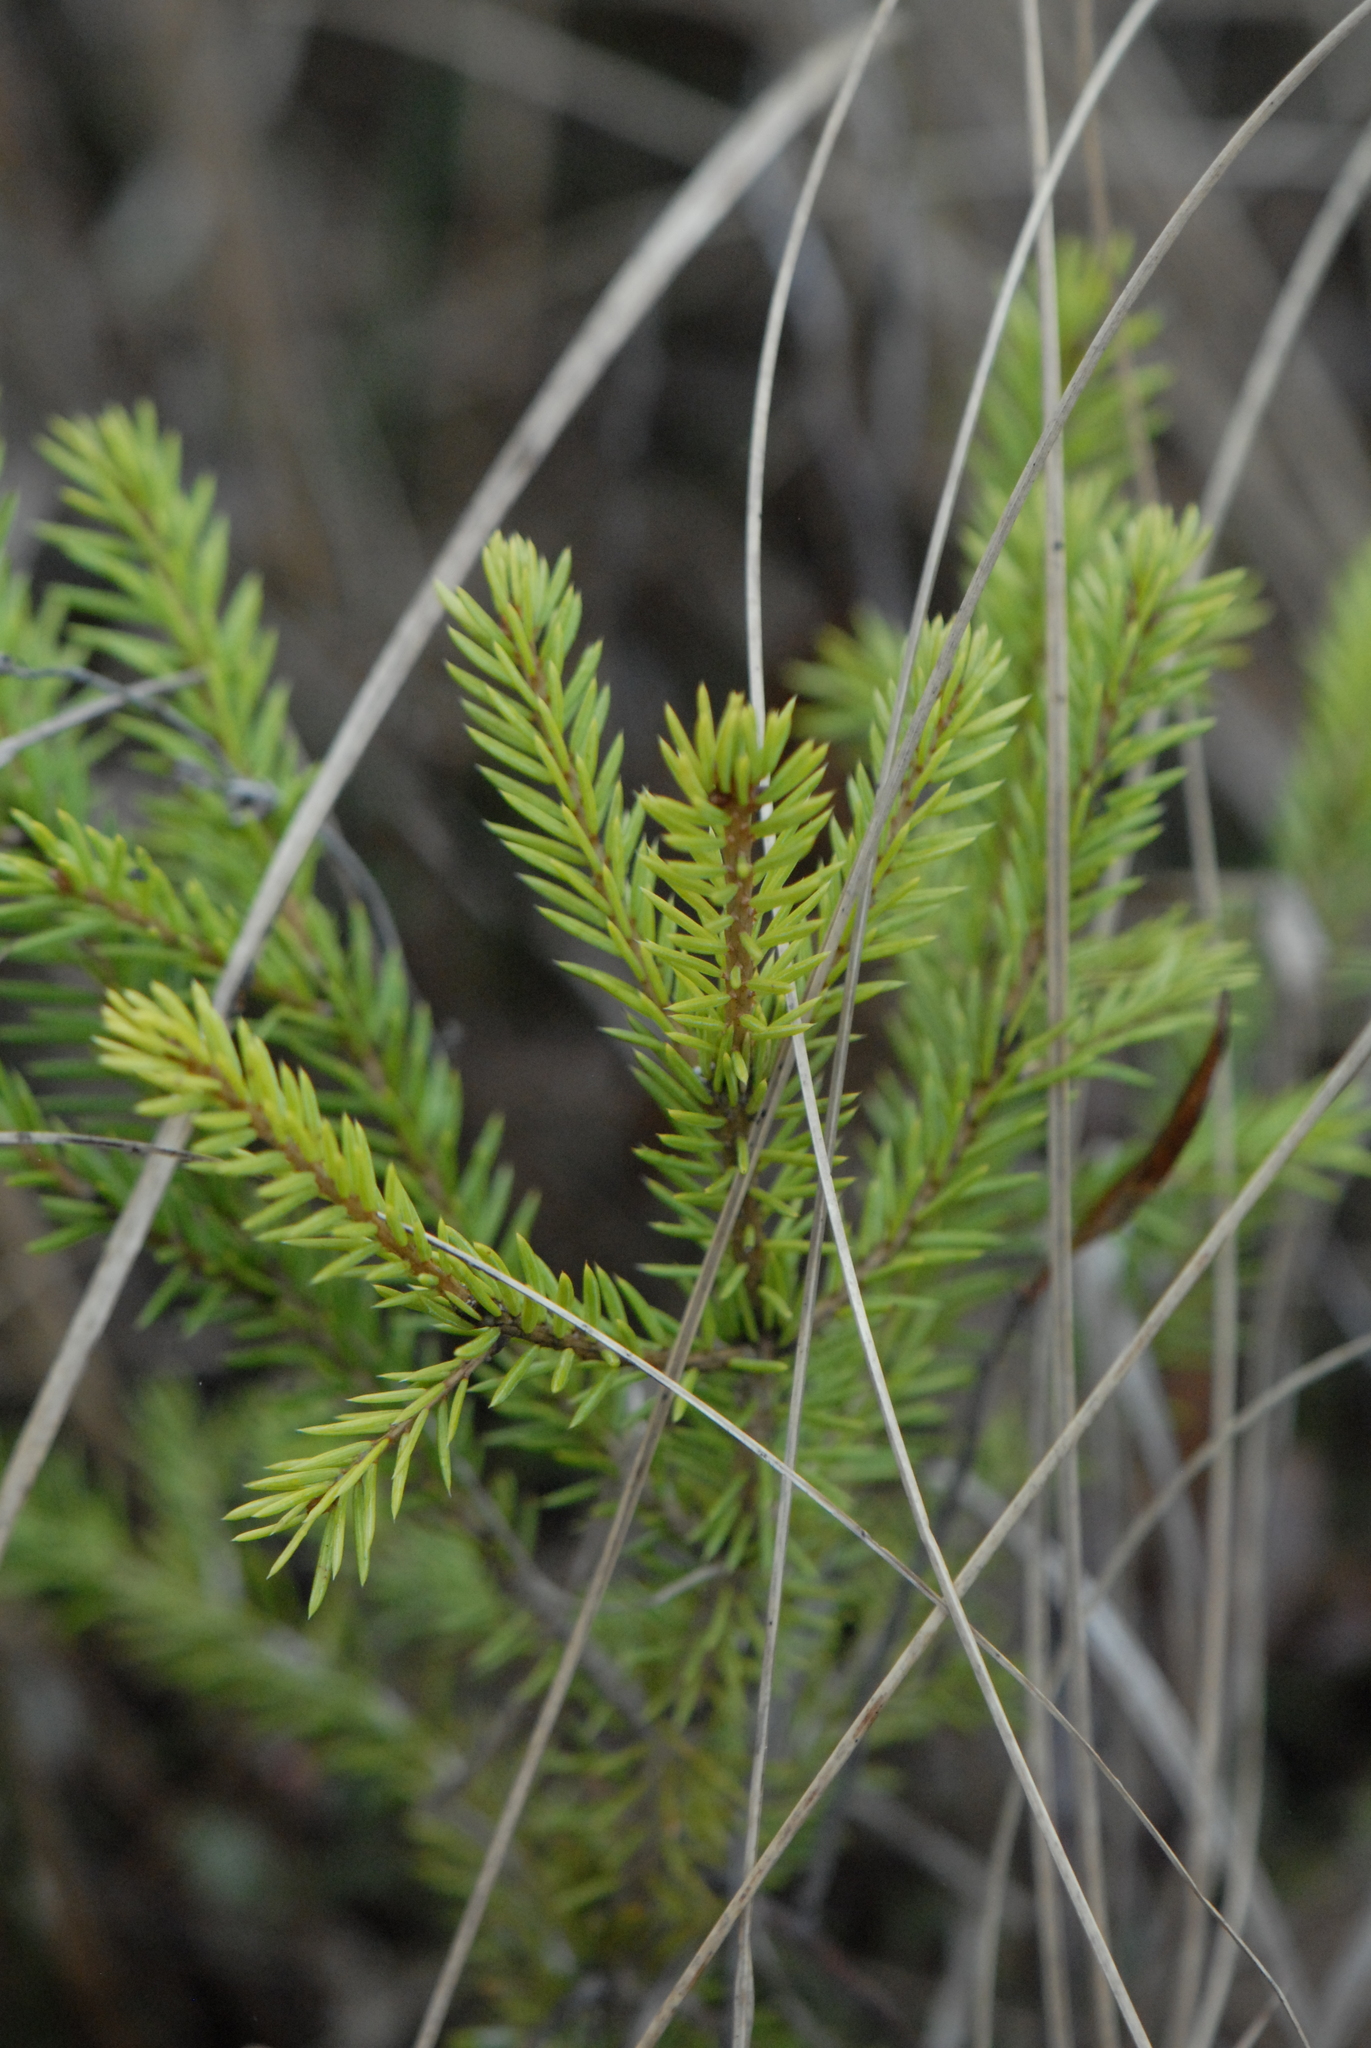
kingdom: Plantae
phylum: Tracheophyta
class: Pinopsida
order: Pinales
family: Pinaceae
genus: Picea
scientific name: Picea abies
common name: Norway spruce
